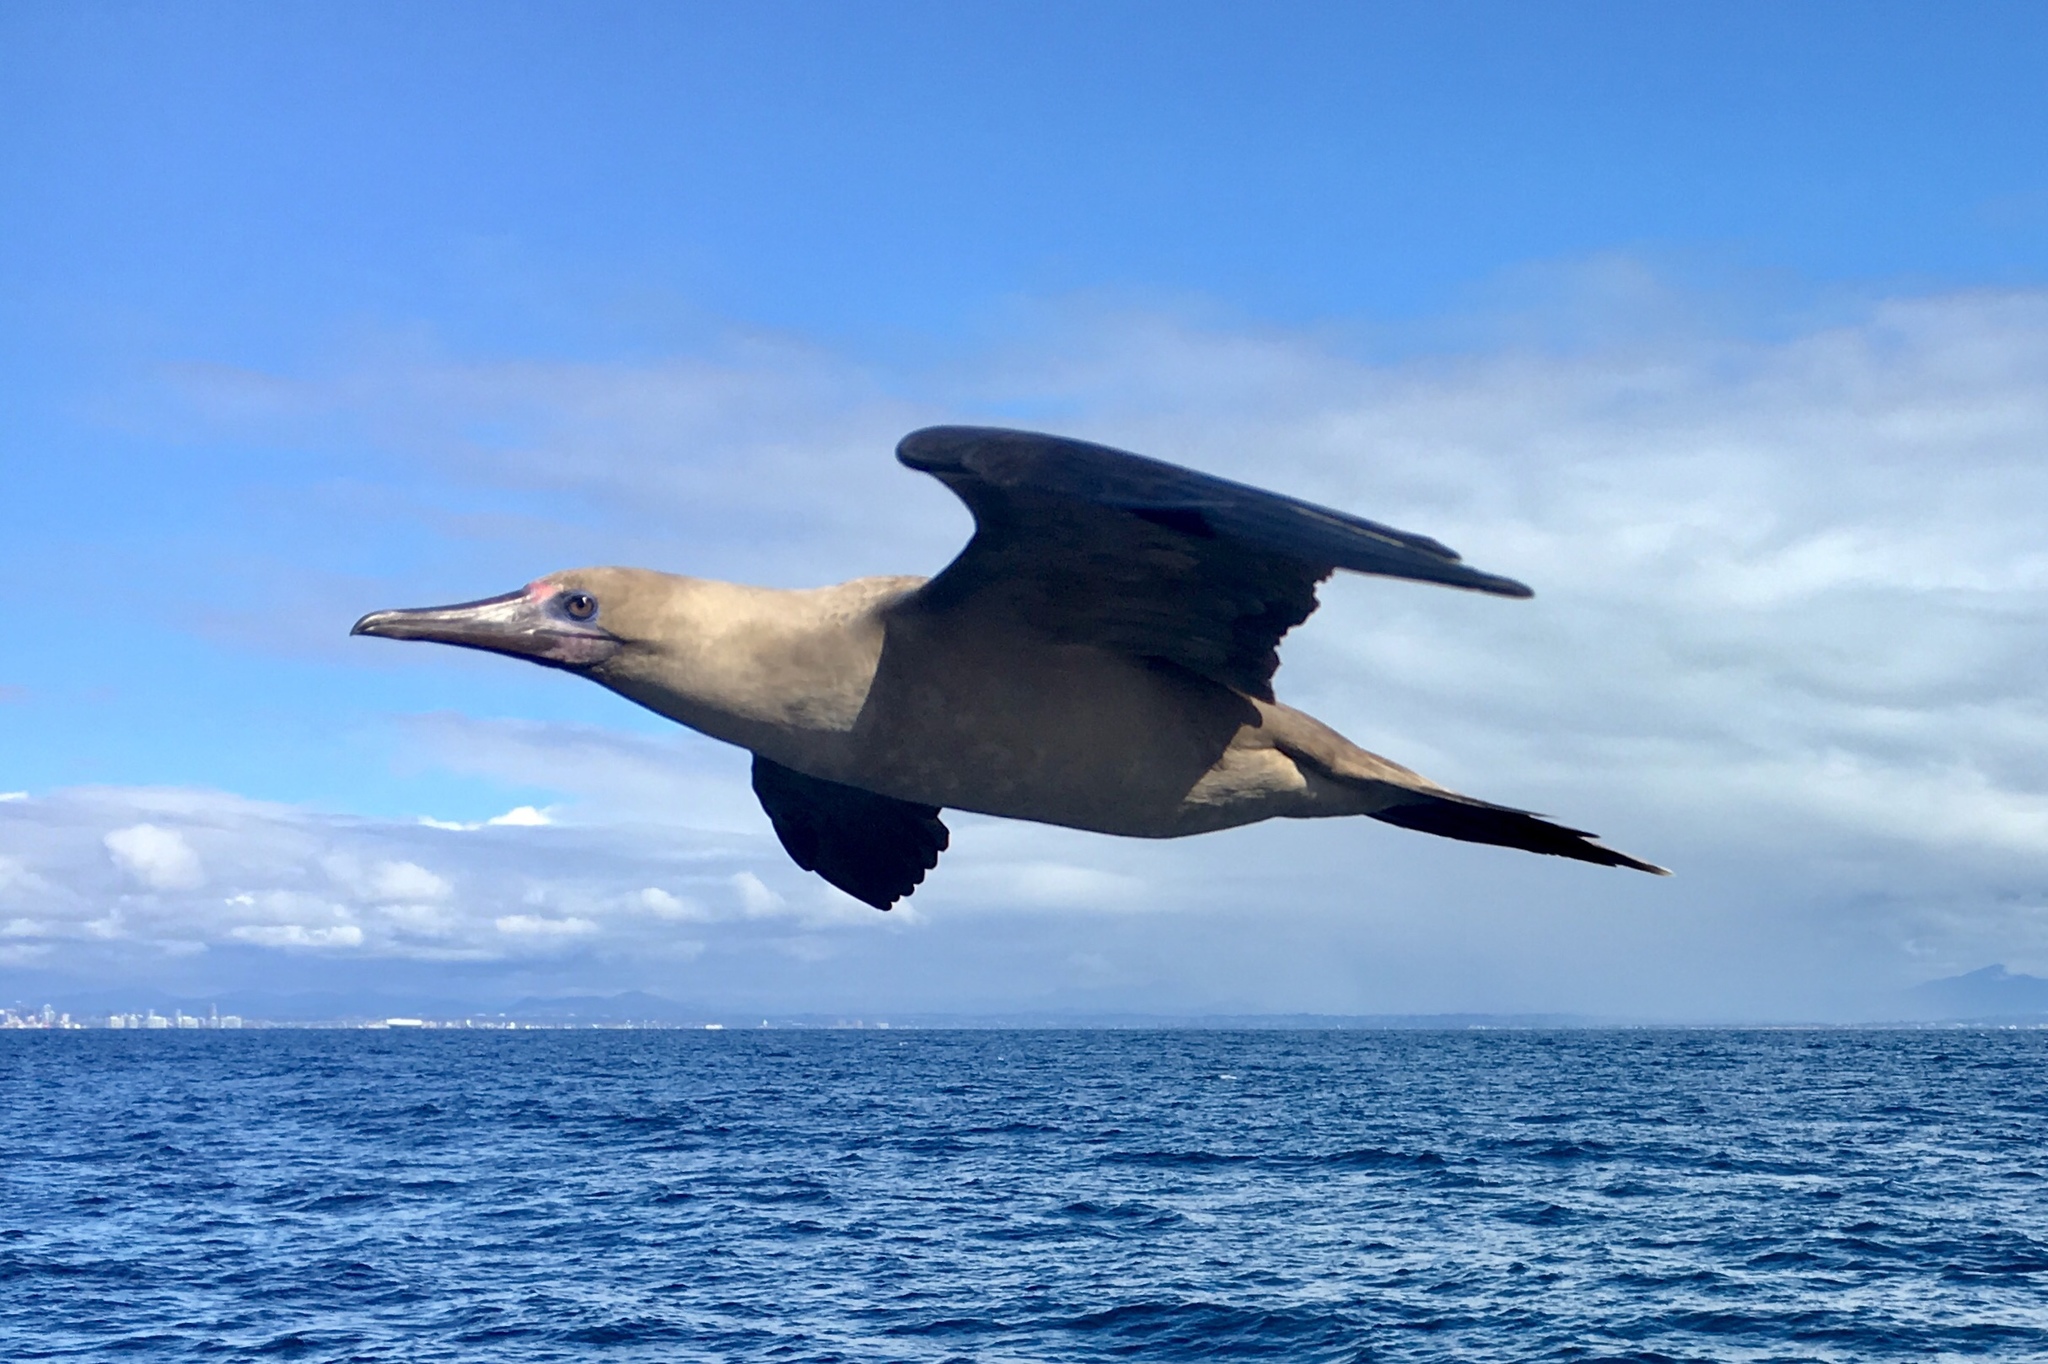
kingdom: Animalia
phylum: Chordata
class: Aves
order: Suliformes
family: Sulidae
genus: Sula
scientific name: Sula sula
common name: Red-footed booby
